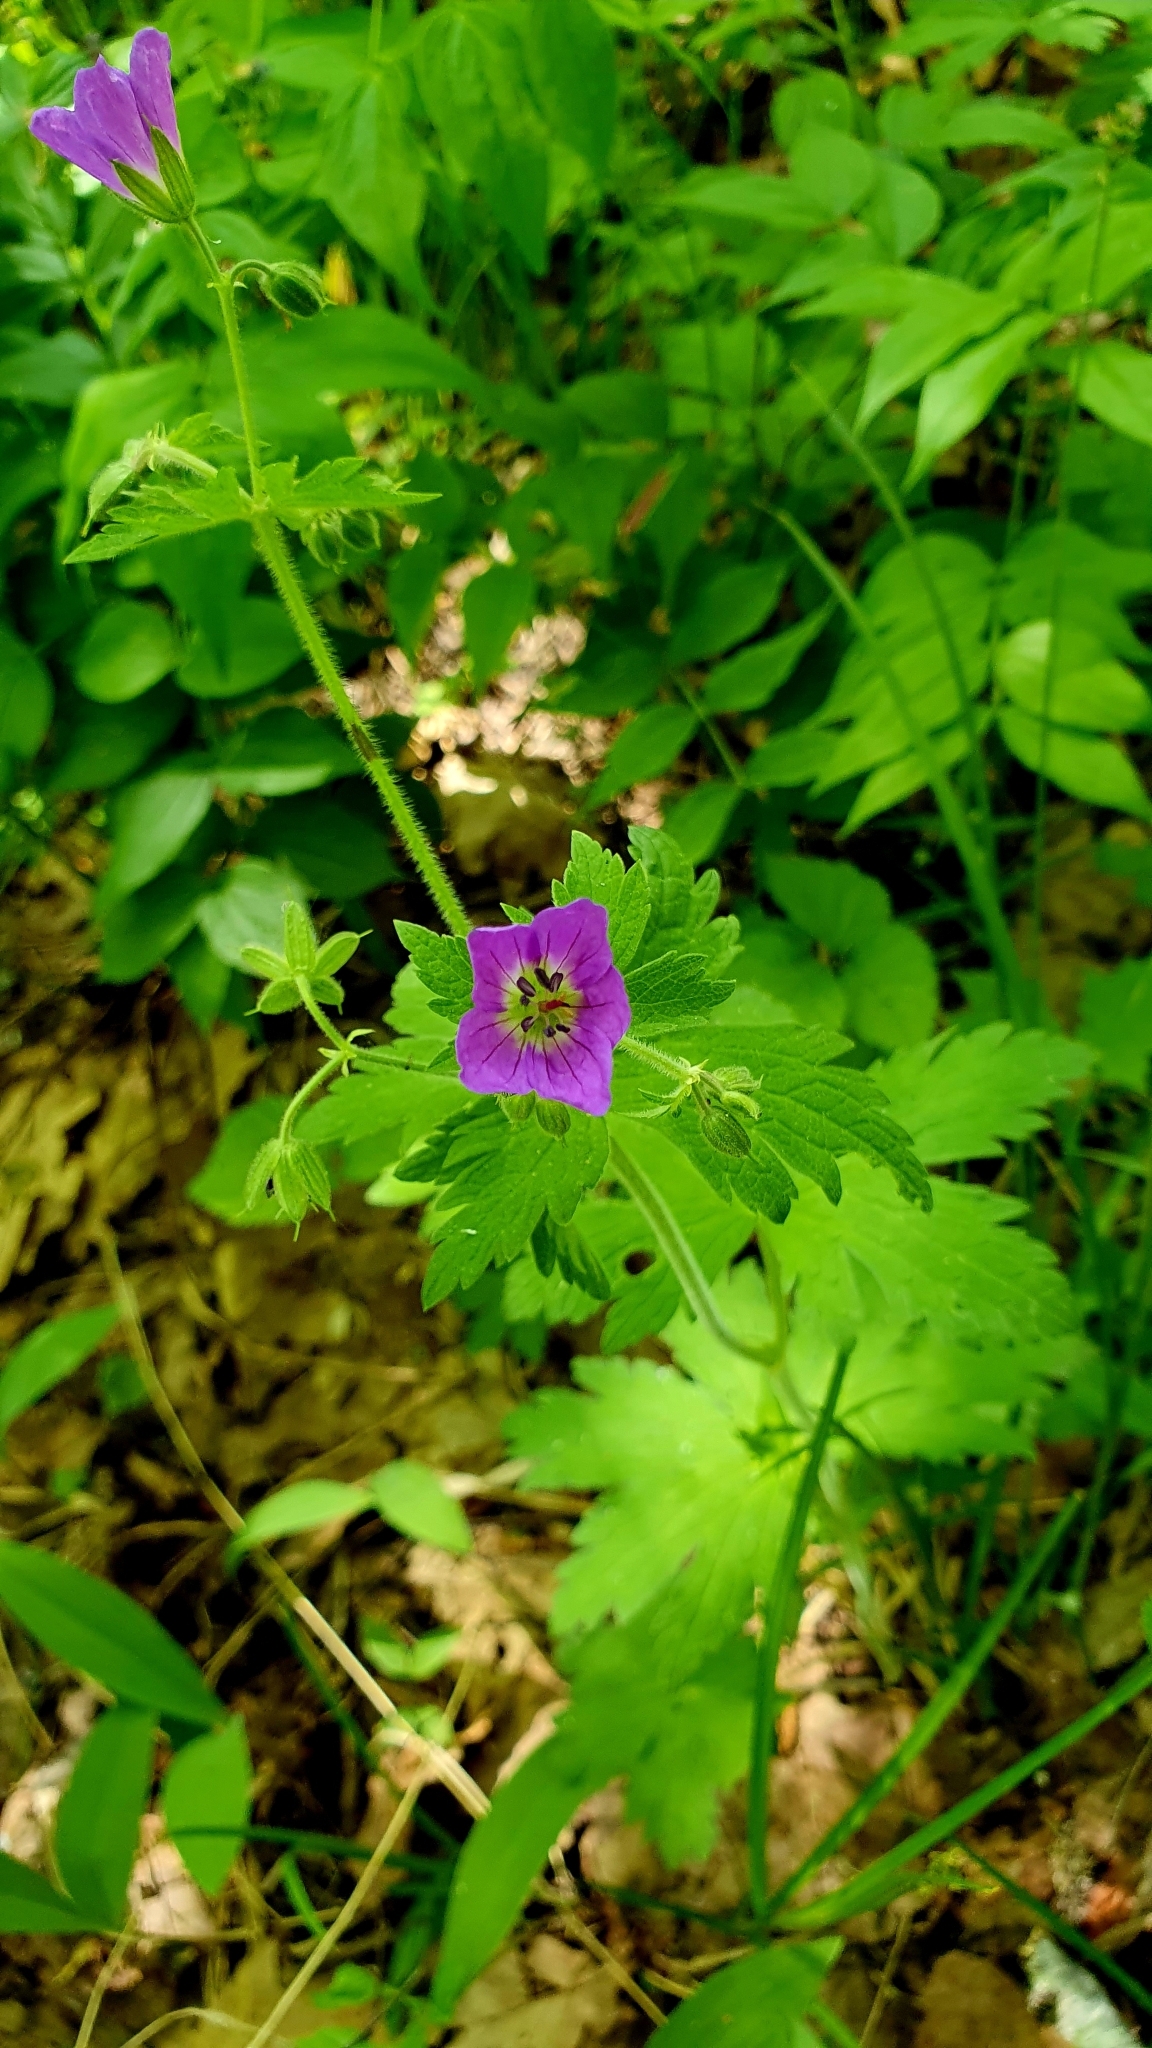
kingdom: Plantae
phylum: Tracheophyta
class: Magnoliopsida
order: Geraniales
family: Geraniaceae
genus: Geranium
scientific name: Geranium sylvaticum
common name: Wood crane's-bill
